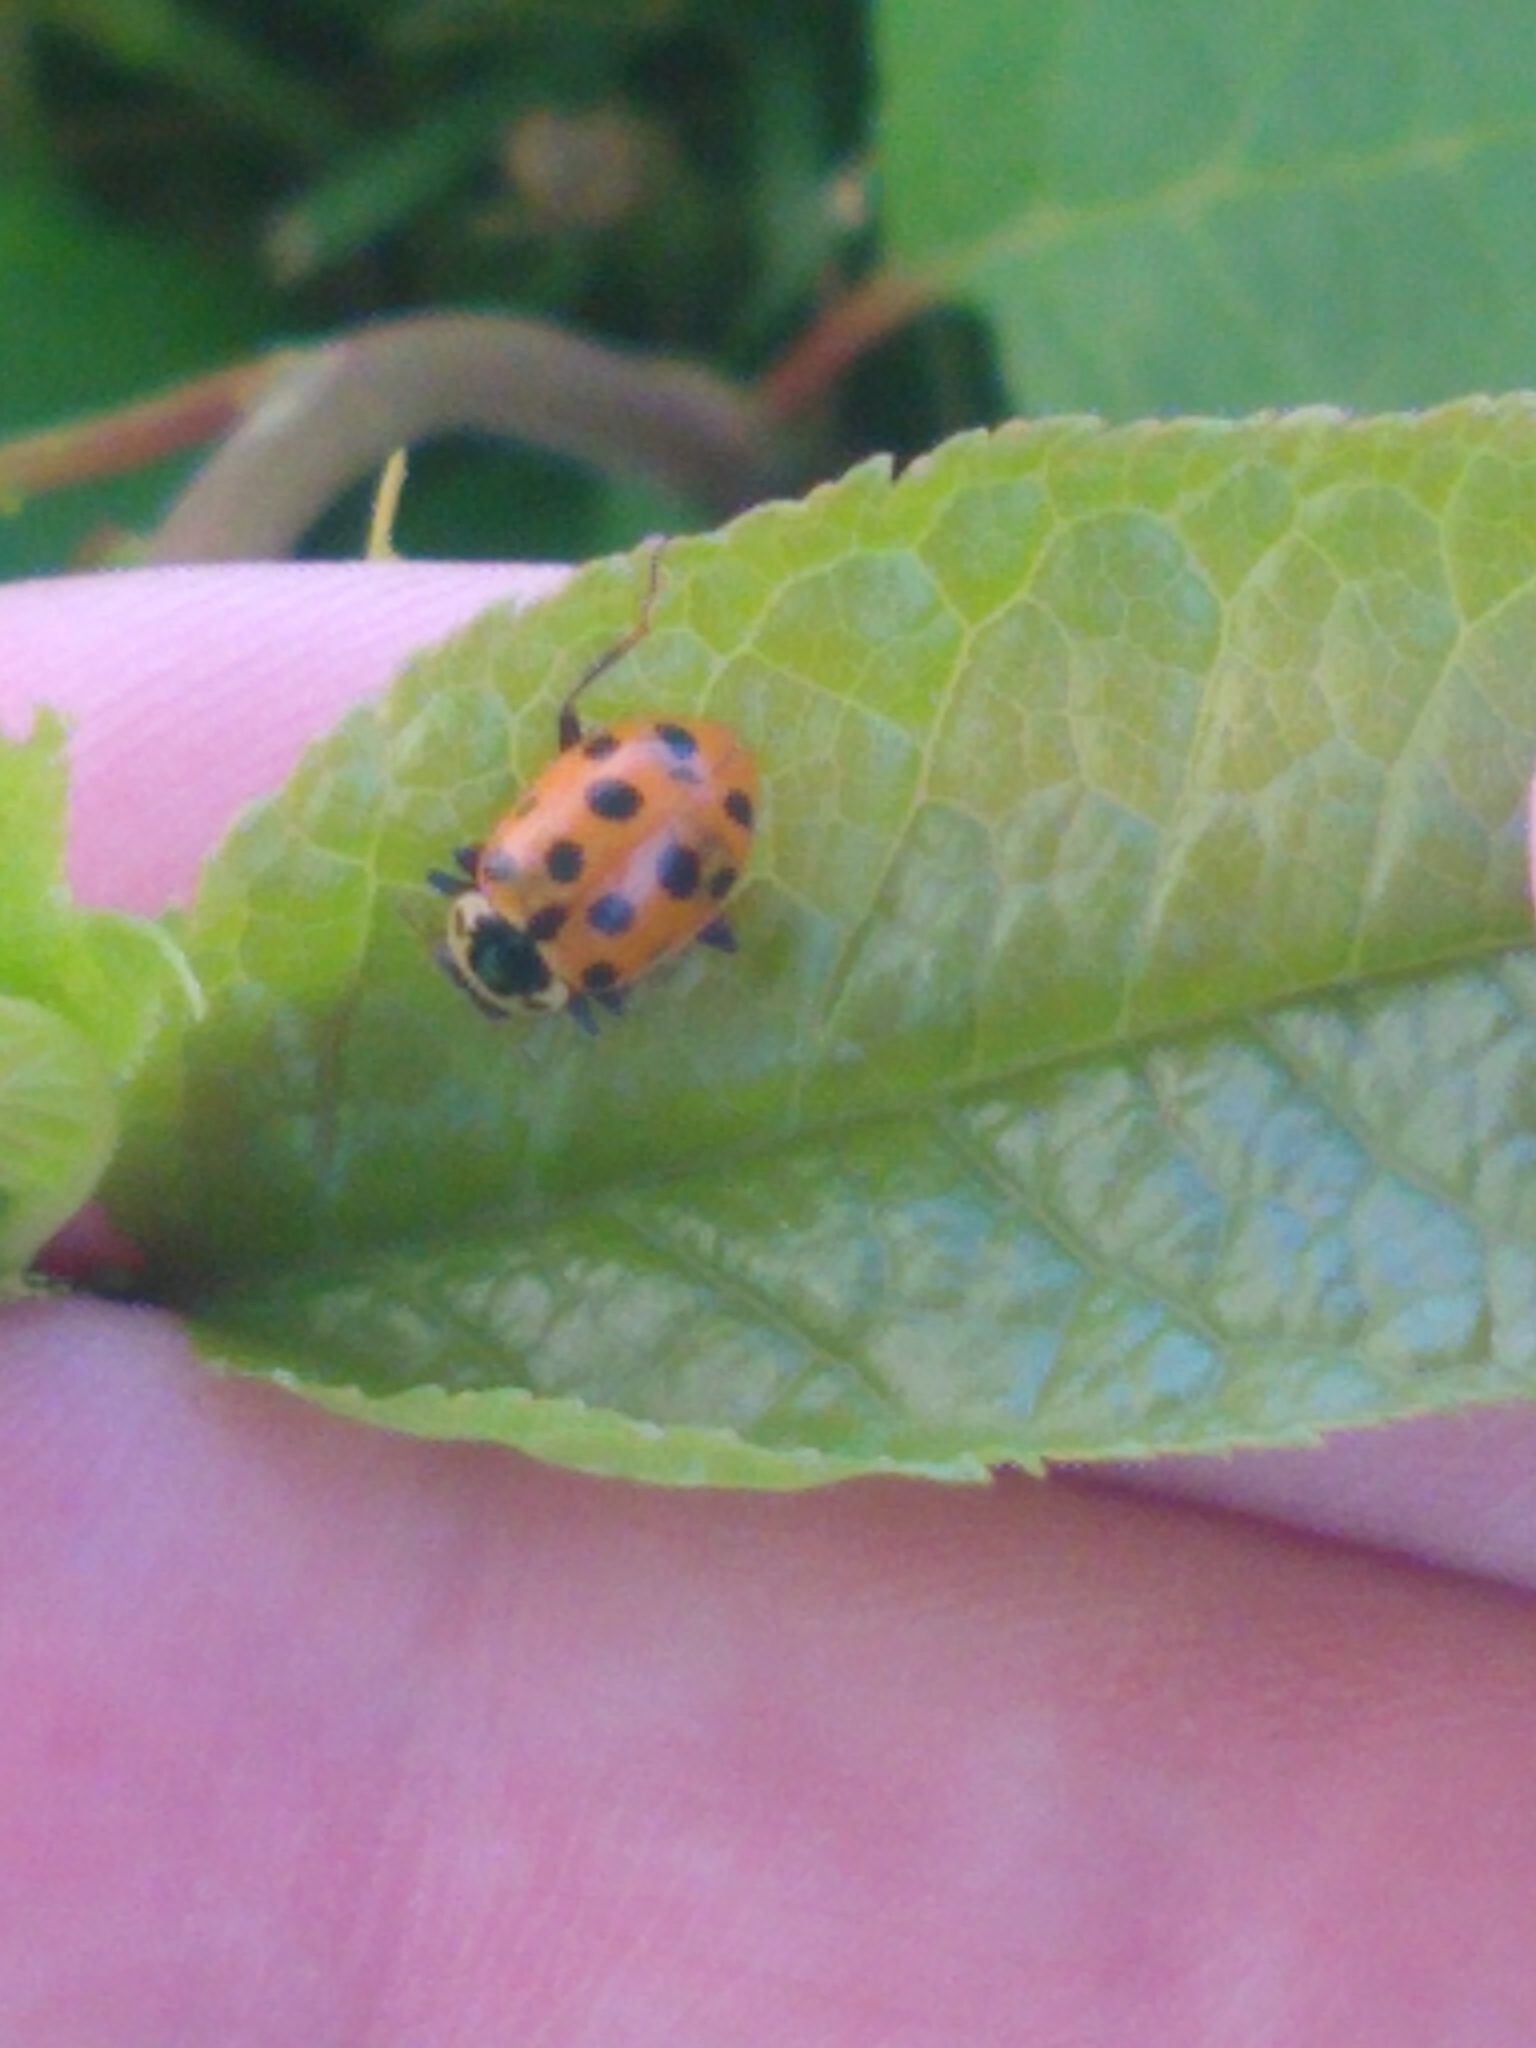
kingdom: Animalia
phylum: Arthropoda
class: Insecta
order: Coleoptera
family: Coccinellidae
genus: Hippodamia
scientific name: Hippodamia tredecimpunctata
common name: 13-spot ladybird
